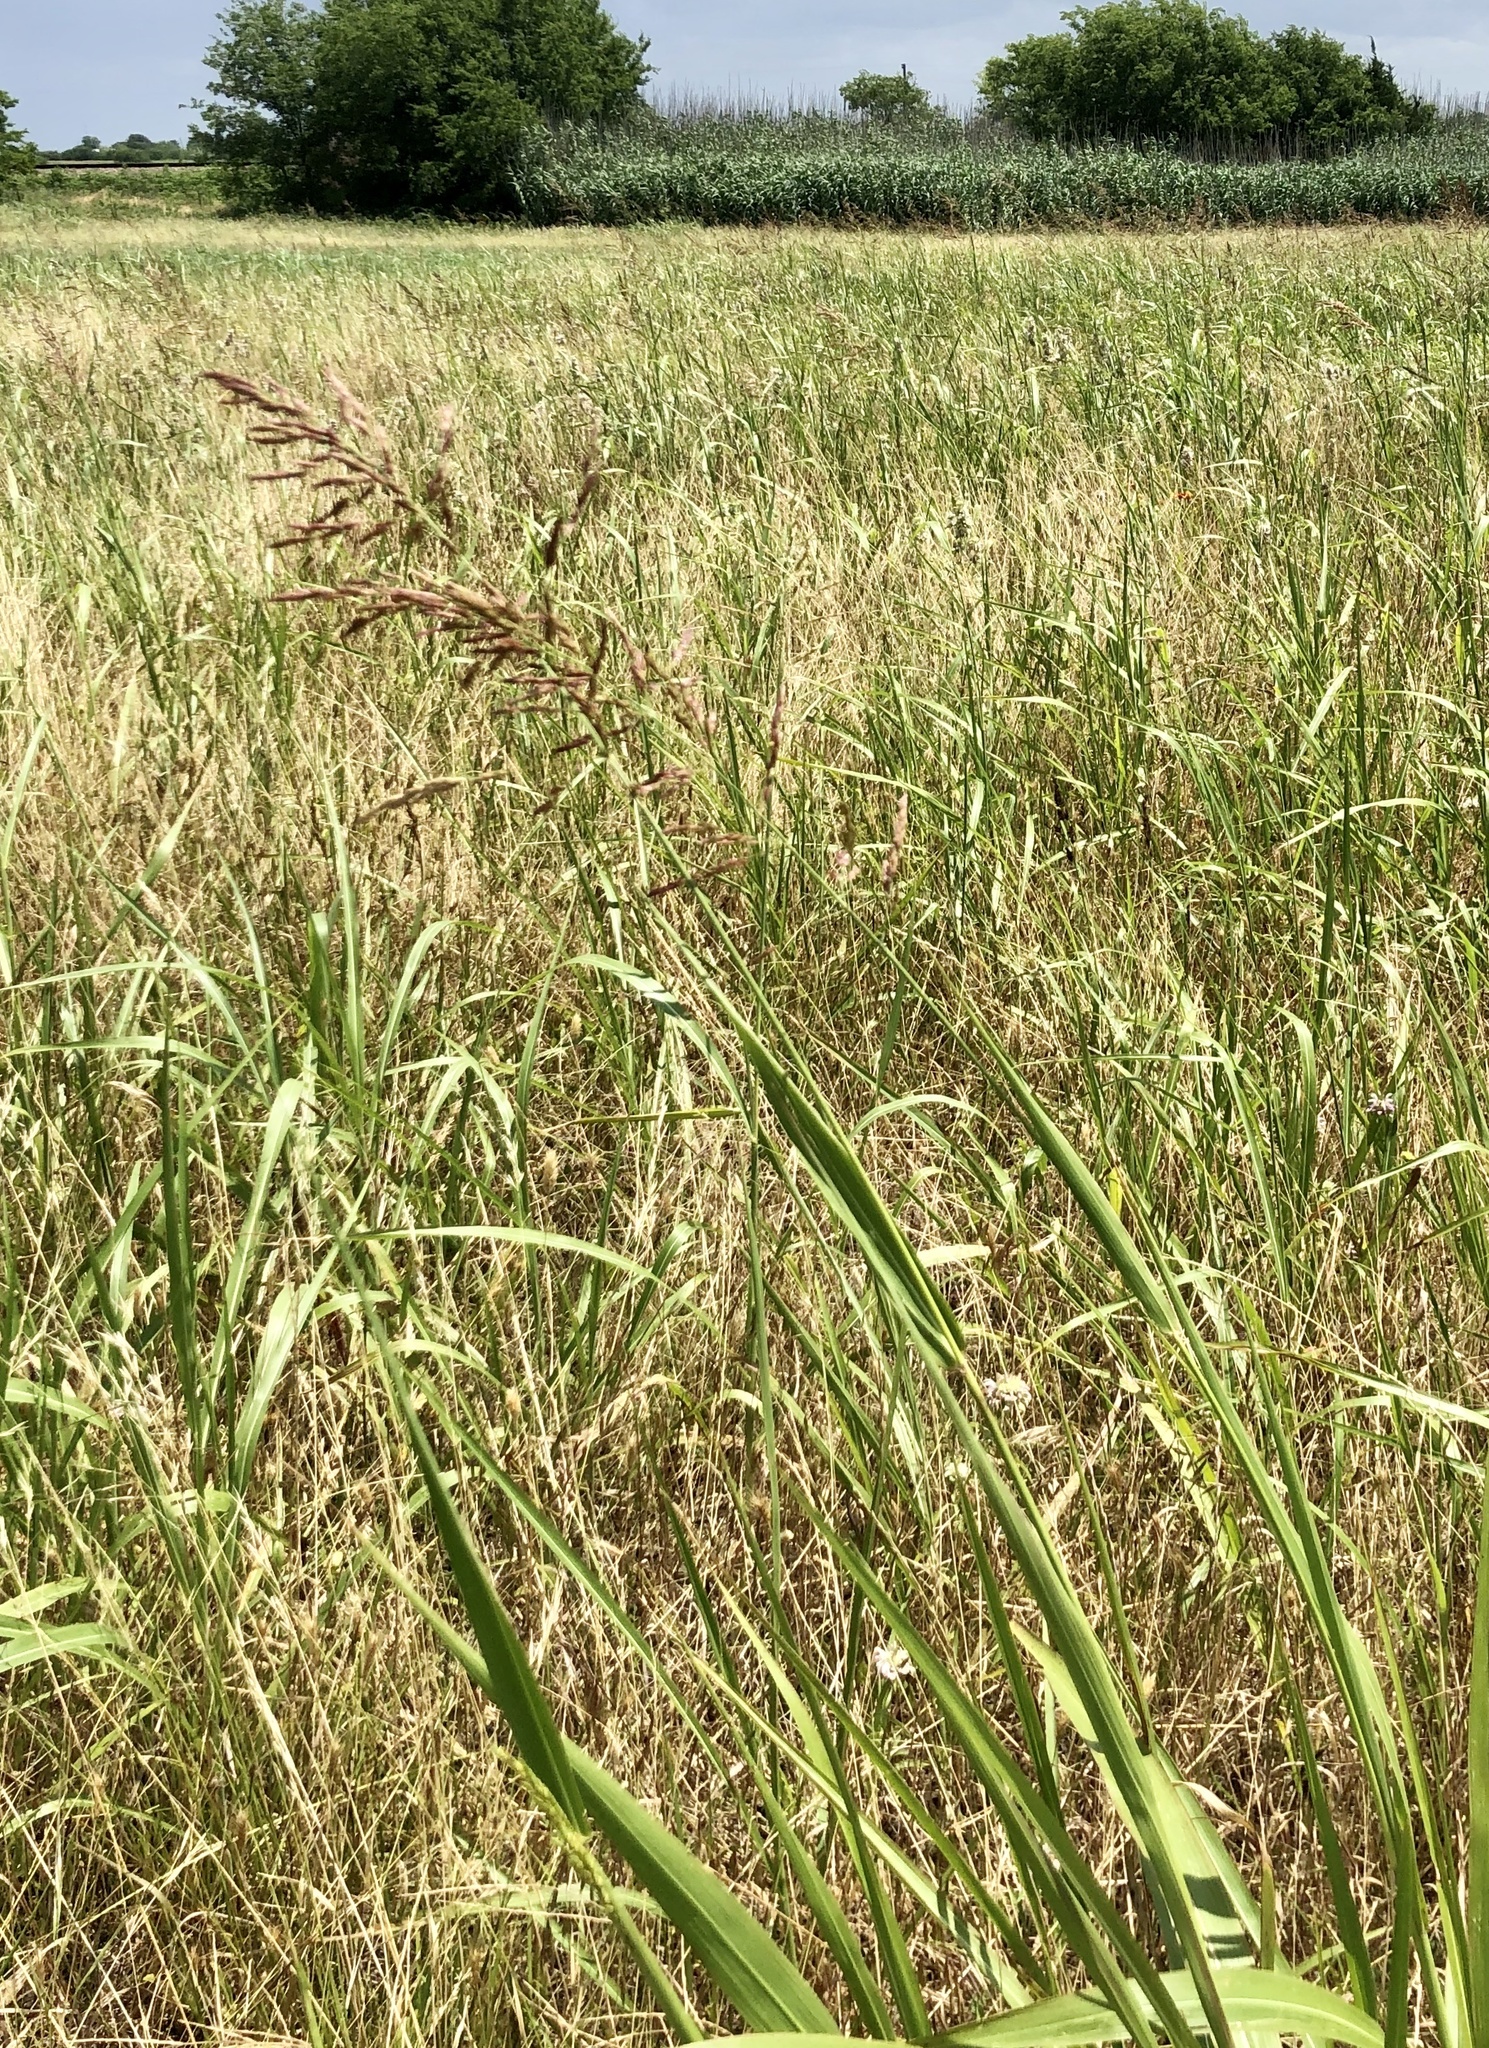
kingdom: Plantae
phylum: Tracheophyta
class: Liliopsida
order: Poales
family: Poaceae
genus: Sorghum
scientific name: Sorghum halepense
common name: Johnson-grass
